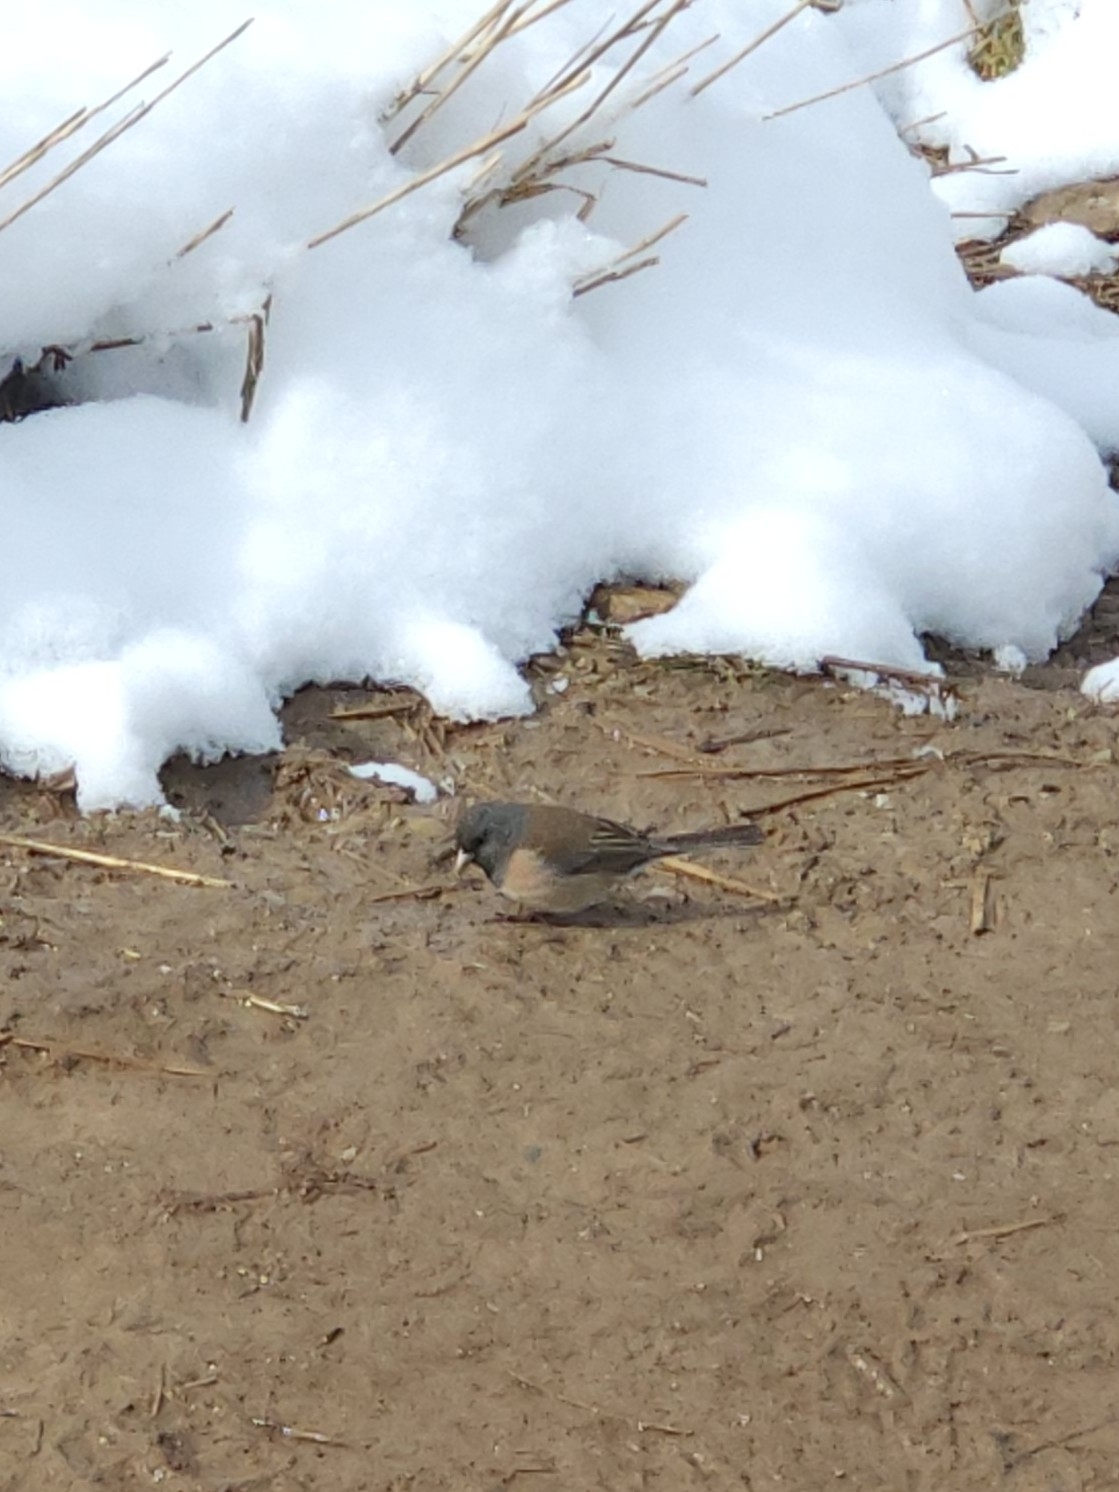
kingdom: Animalia
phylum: Chordata
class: Aves
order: Passeriformes
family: Passerellidae
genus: Junco
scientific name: Junco hyemalis
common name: Dark-eyed junco
